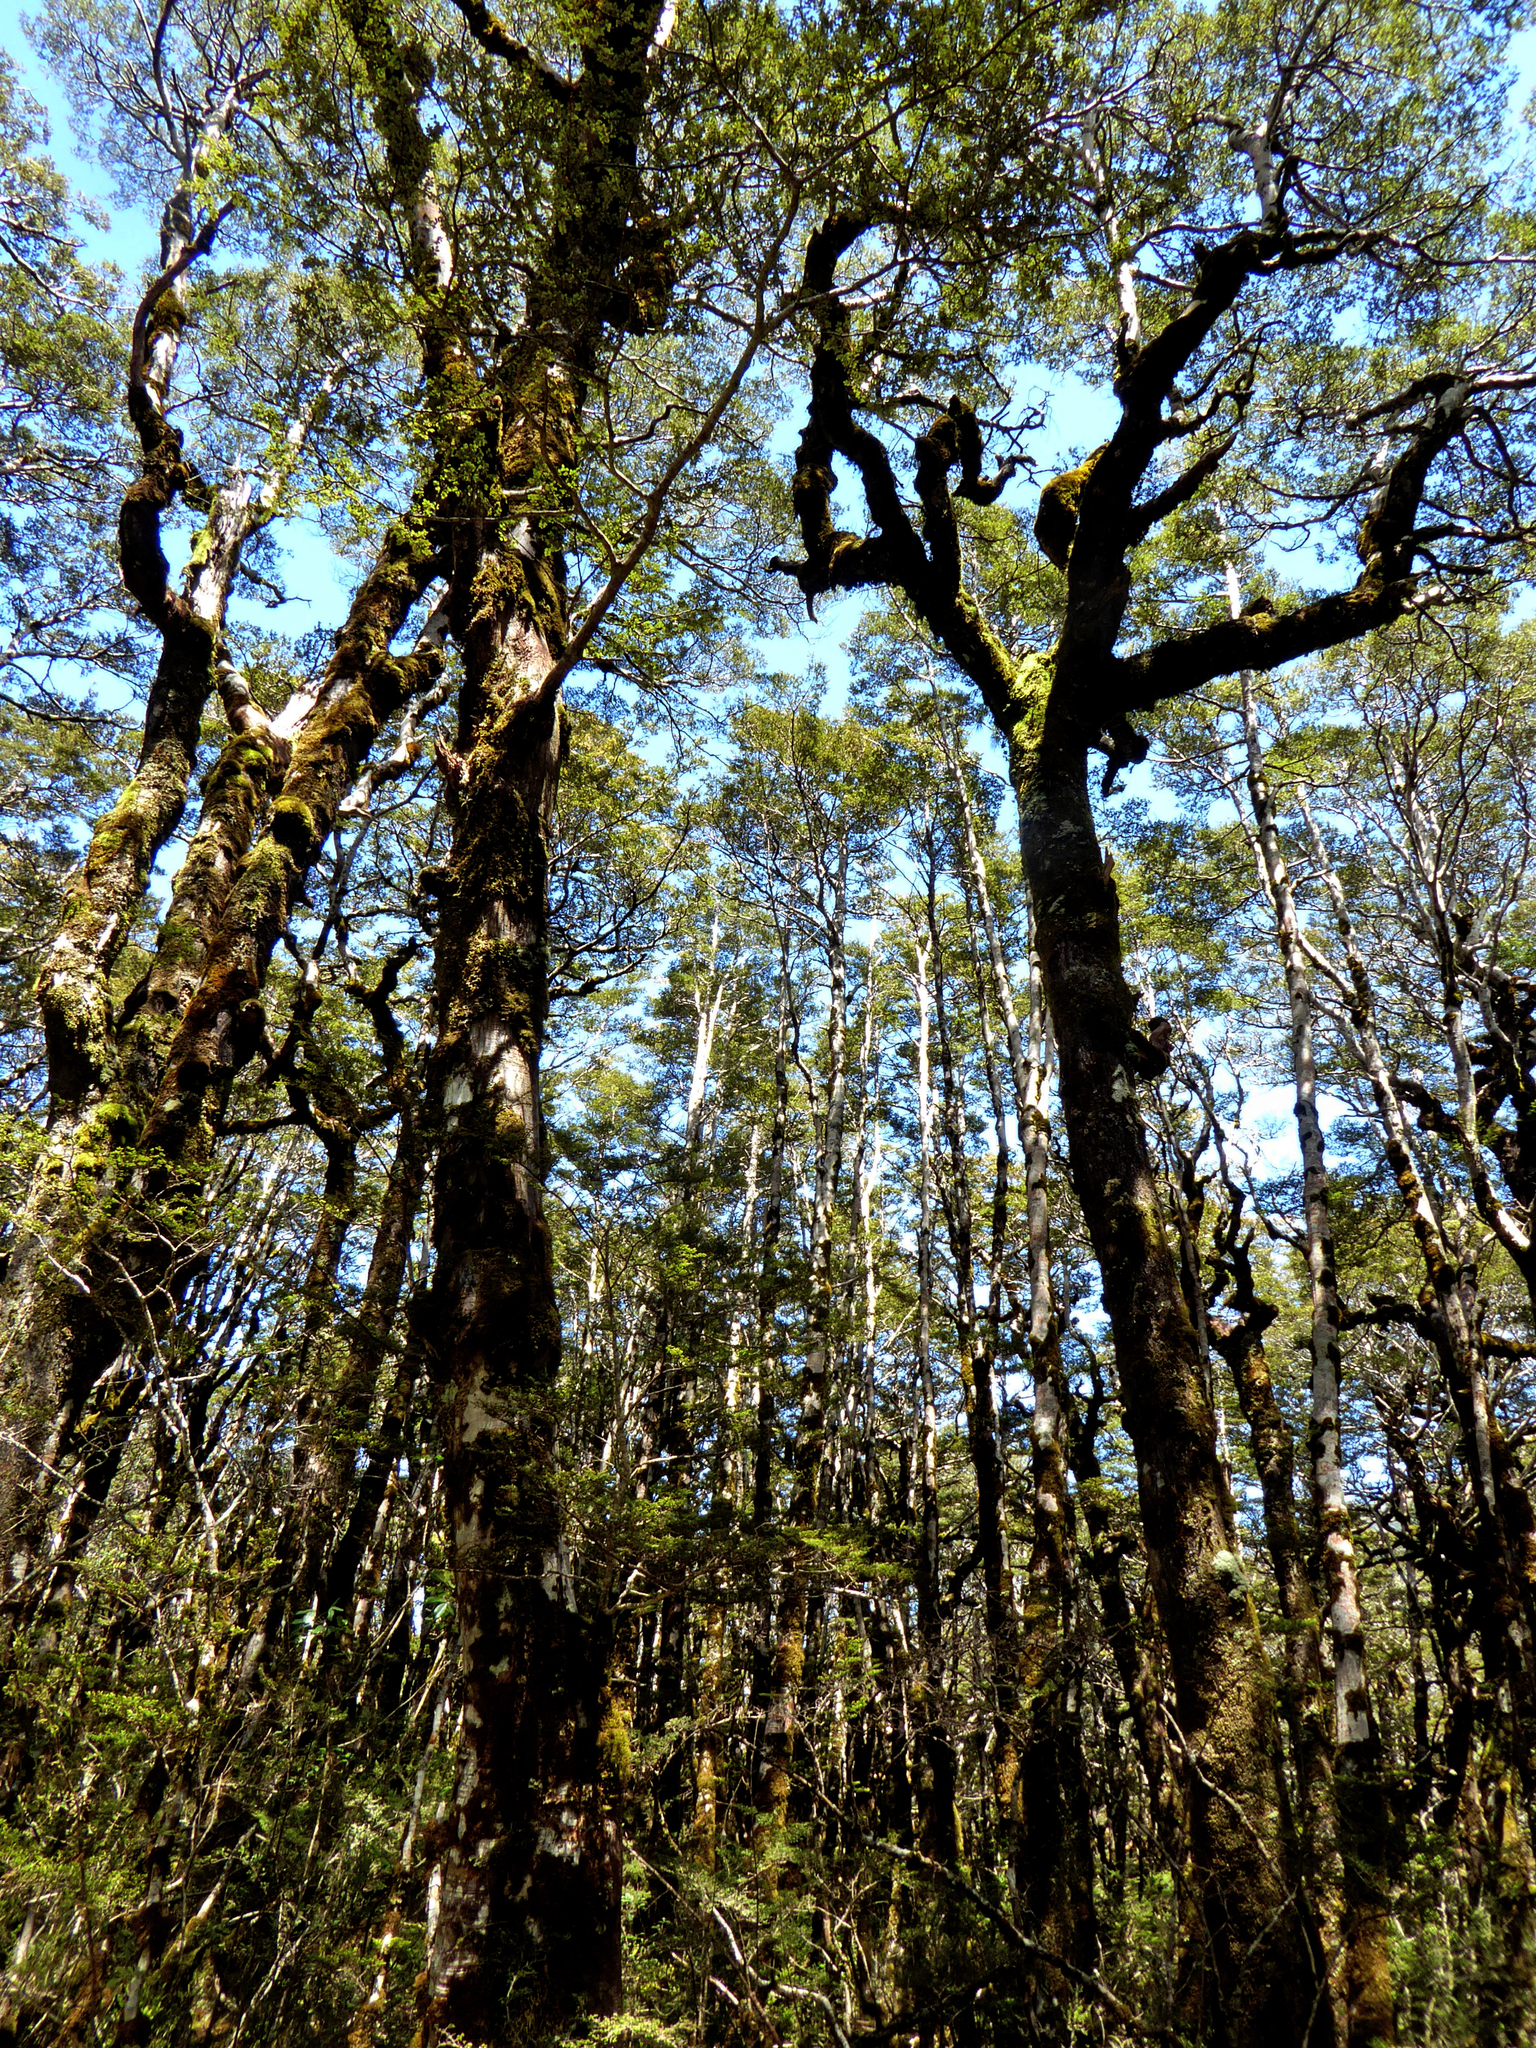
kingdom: Plantae
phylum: Tracheophyta
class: Magnoliopsida
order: Fagales
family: Nothofagaceae
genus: Nothofagus
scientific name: Nothofagus cliffortioides
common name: Mountain beech
